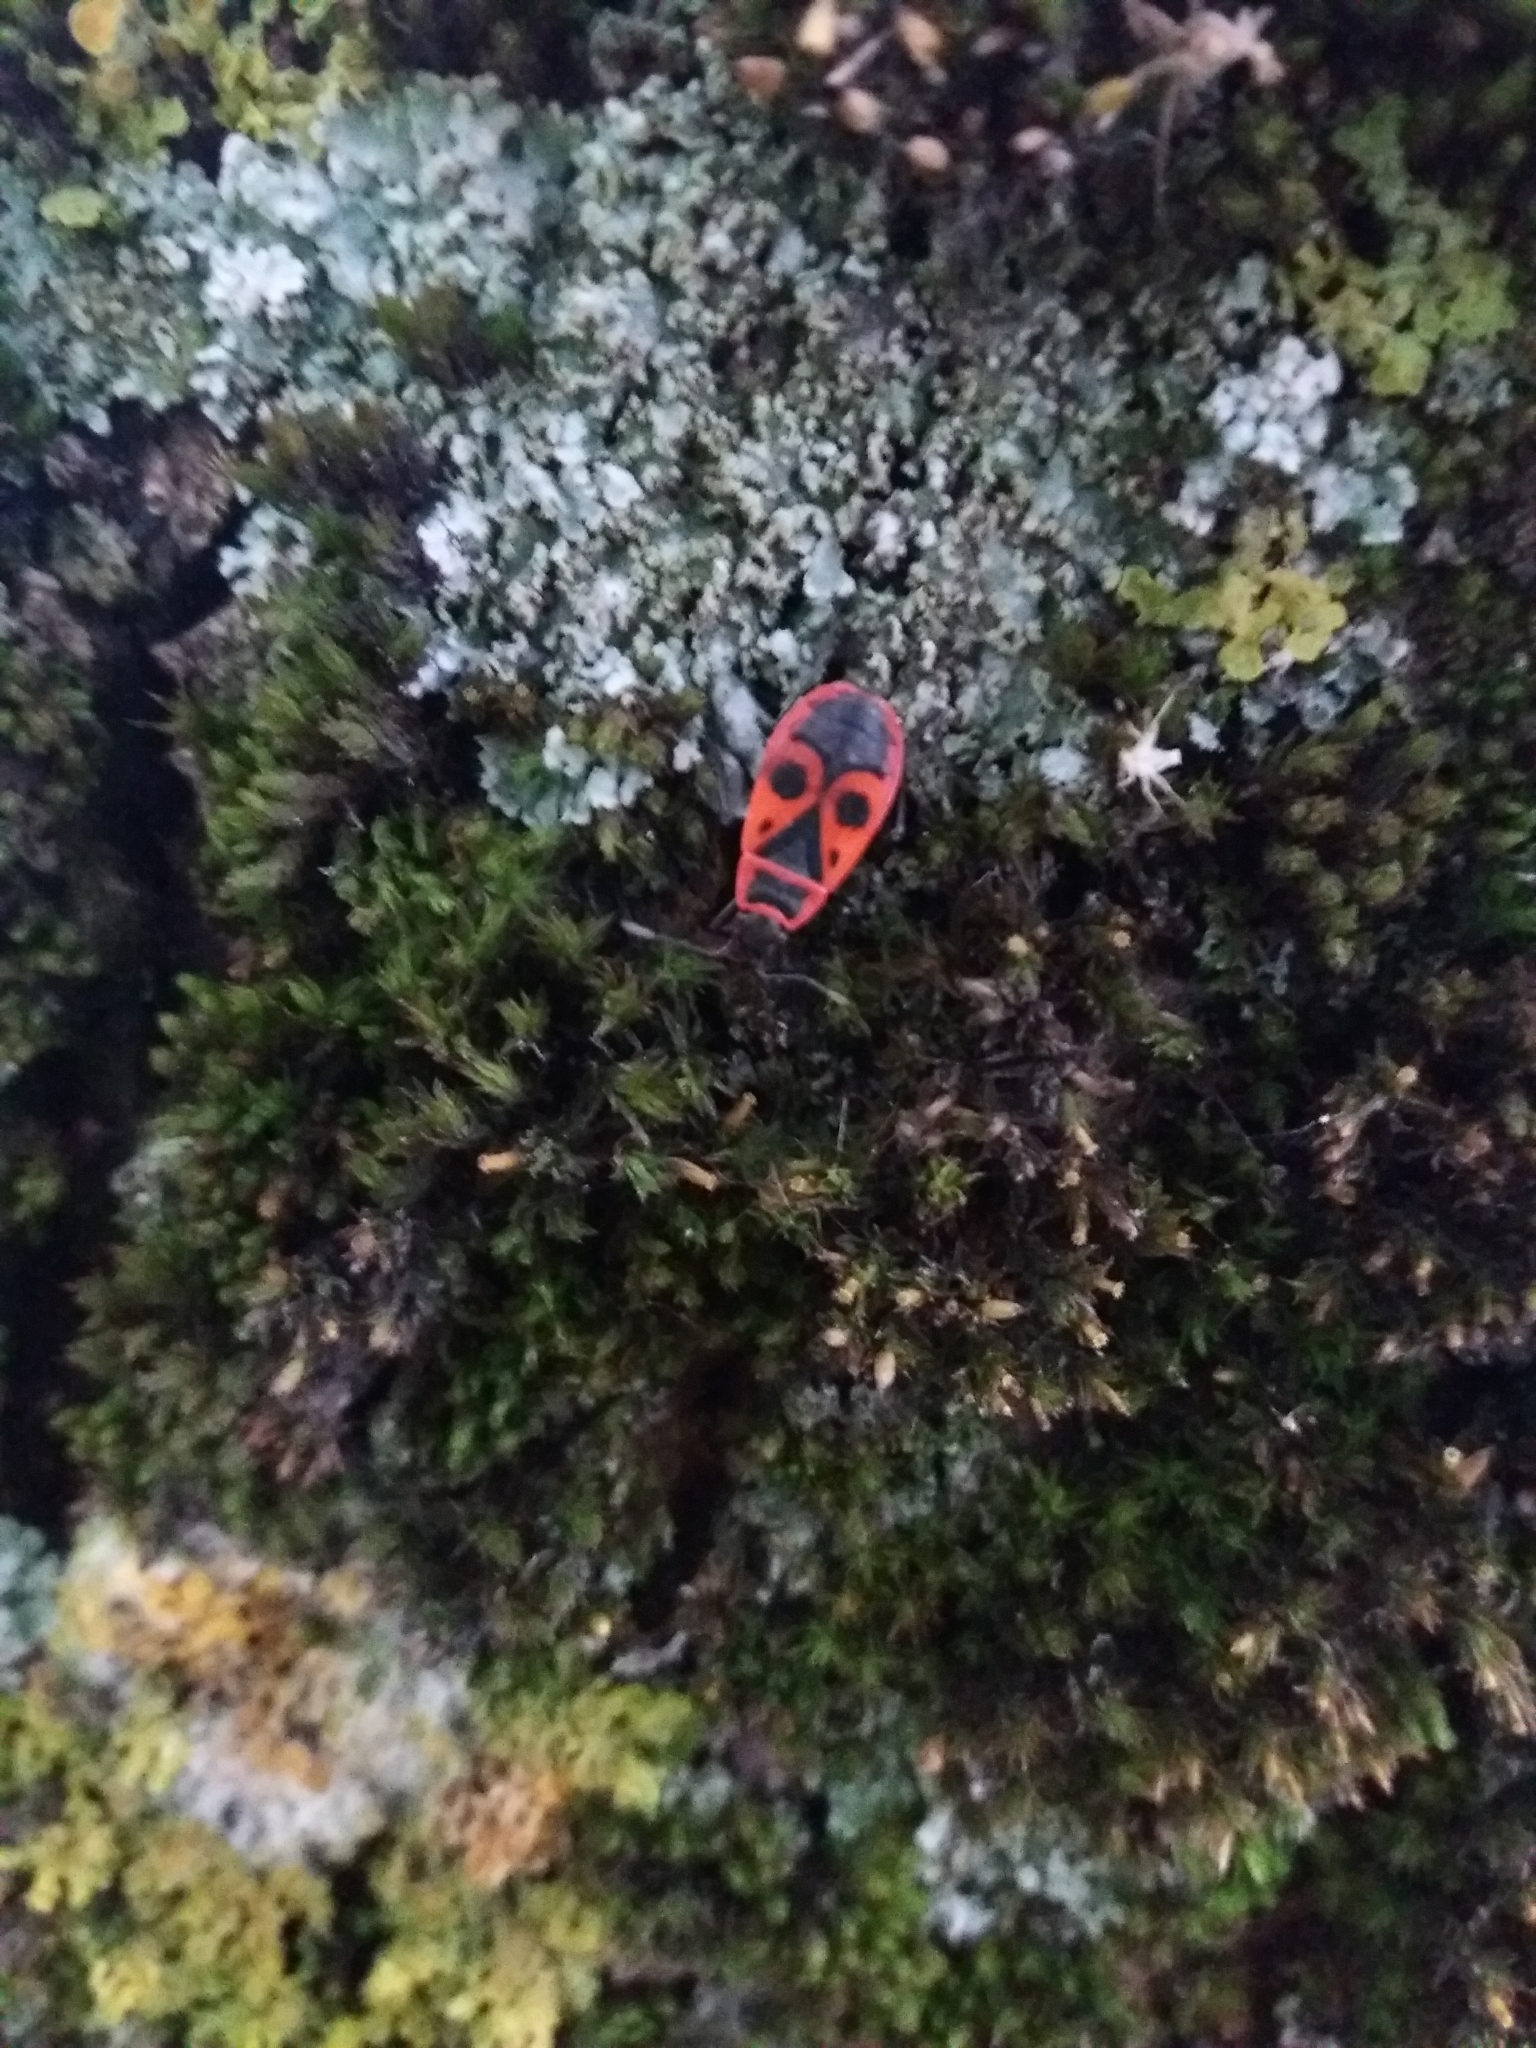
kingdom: Animalia
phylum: Arthropoda
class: Insecta
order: Hemiptera
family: Pyrrhocoridae
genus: Pyrrhocoris
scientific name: Pyrrhocoris apterus
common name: Firebug
